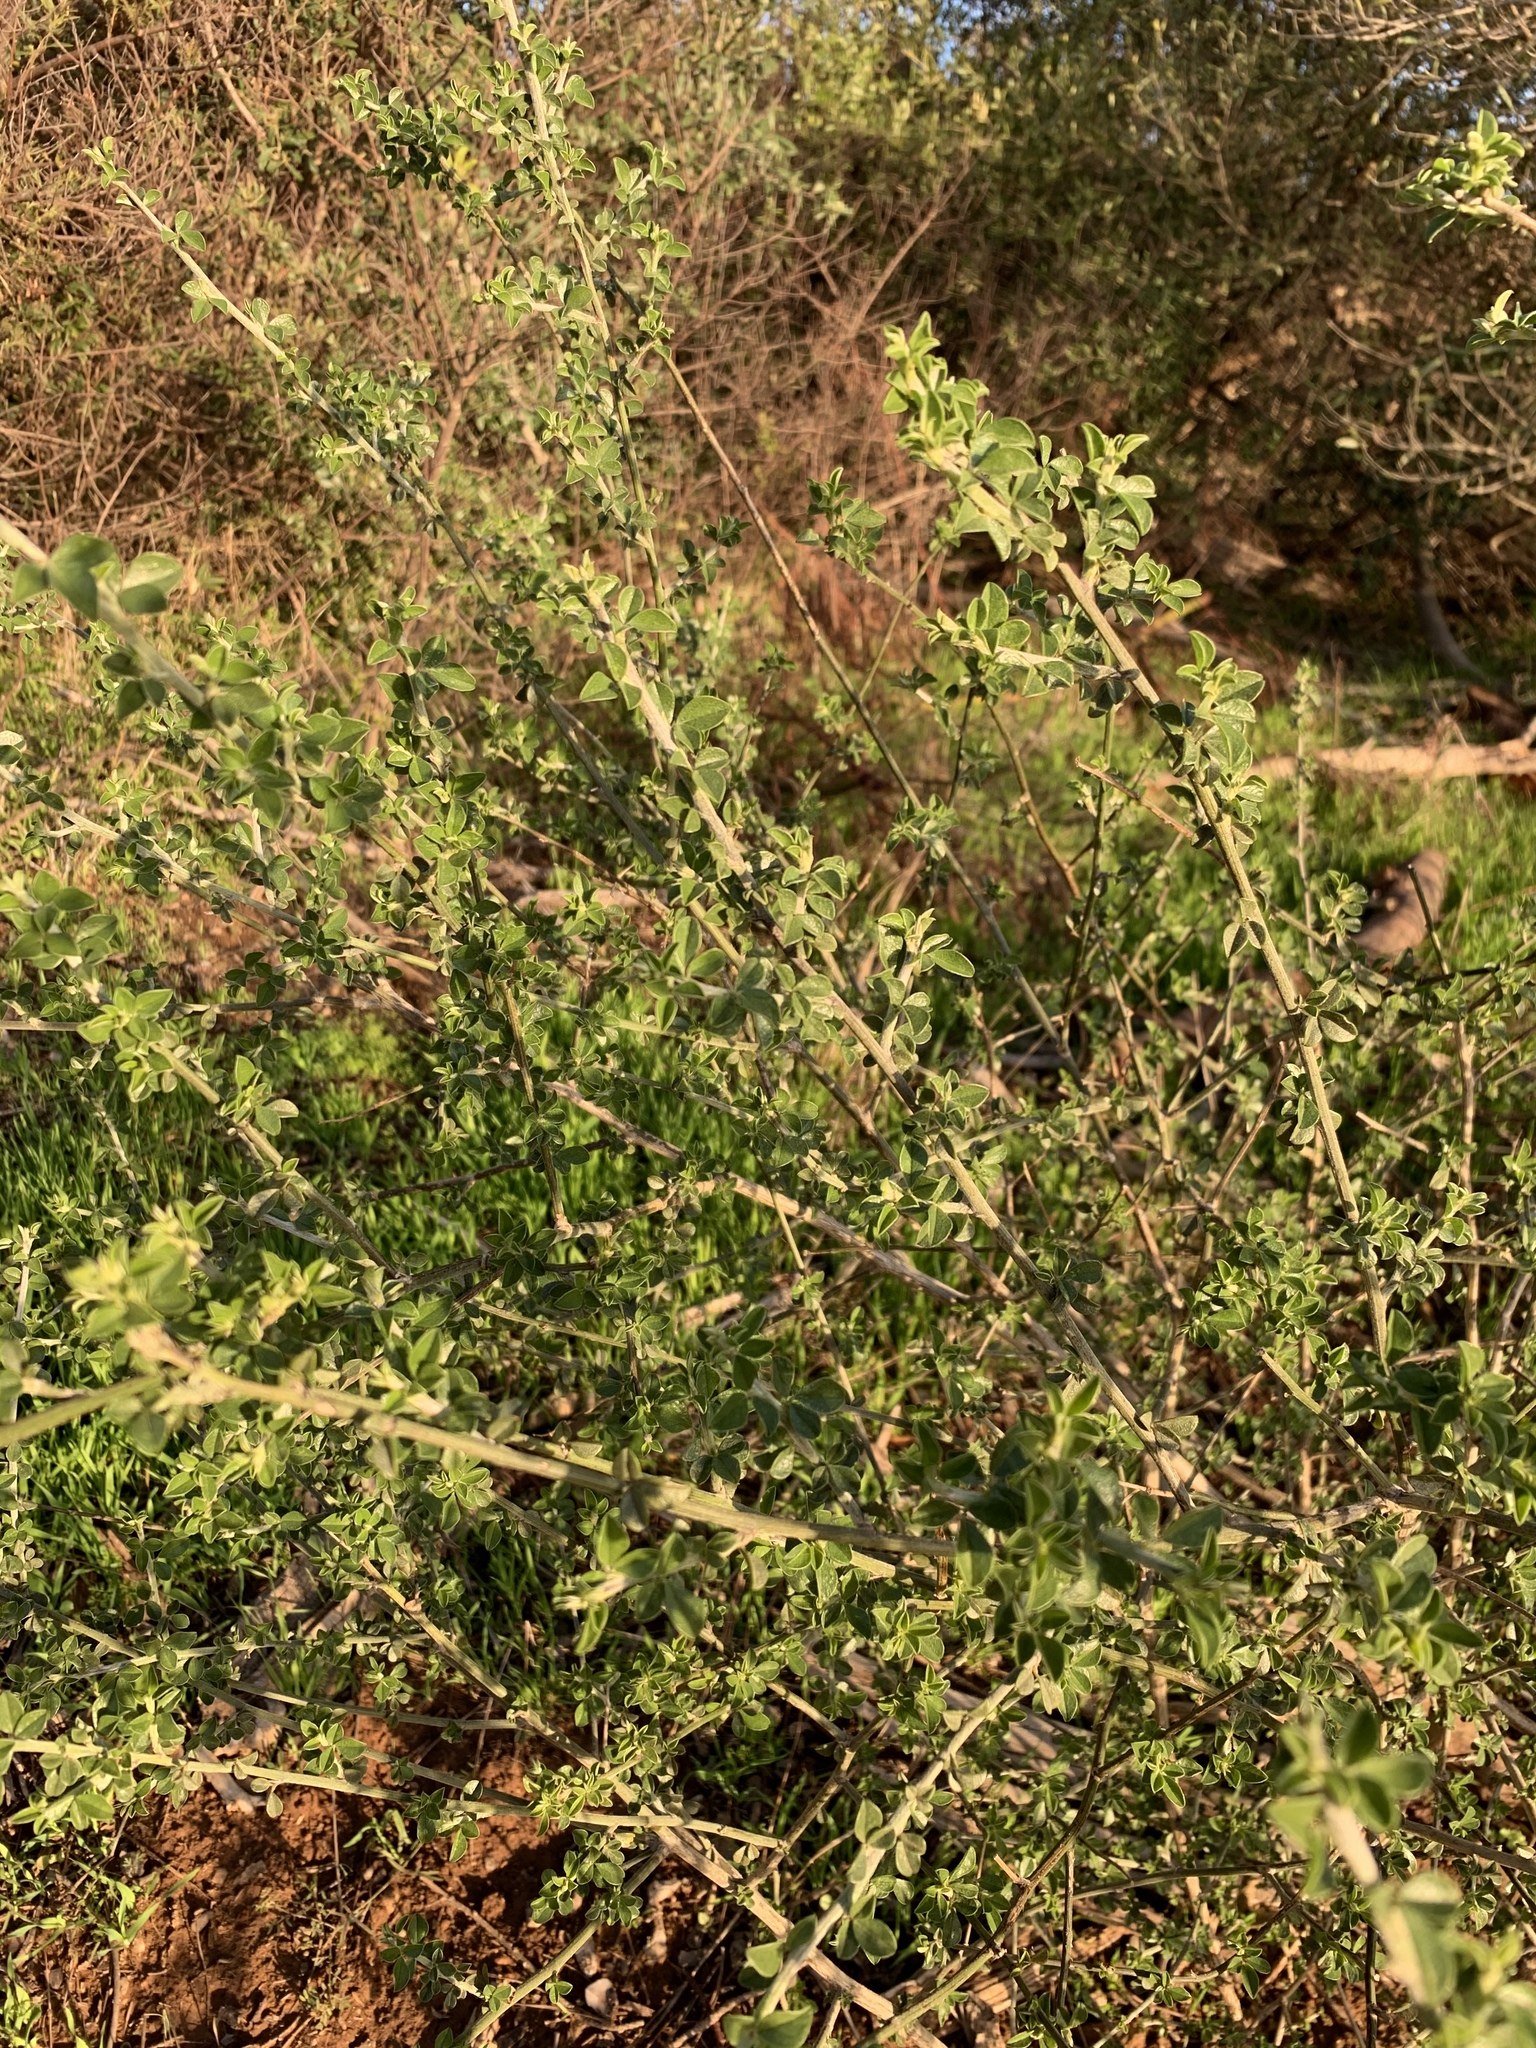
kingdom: Plantae
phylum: Tracheophyta
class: Magnoliopsida
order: Fabales
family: Fabaceae
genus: Psoralea
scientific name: Psoralea hirta
